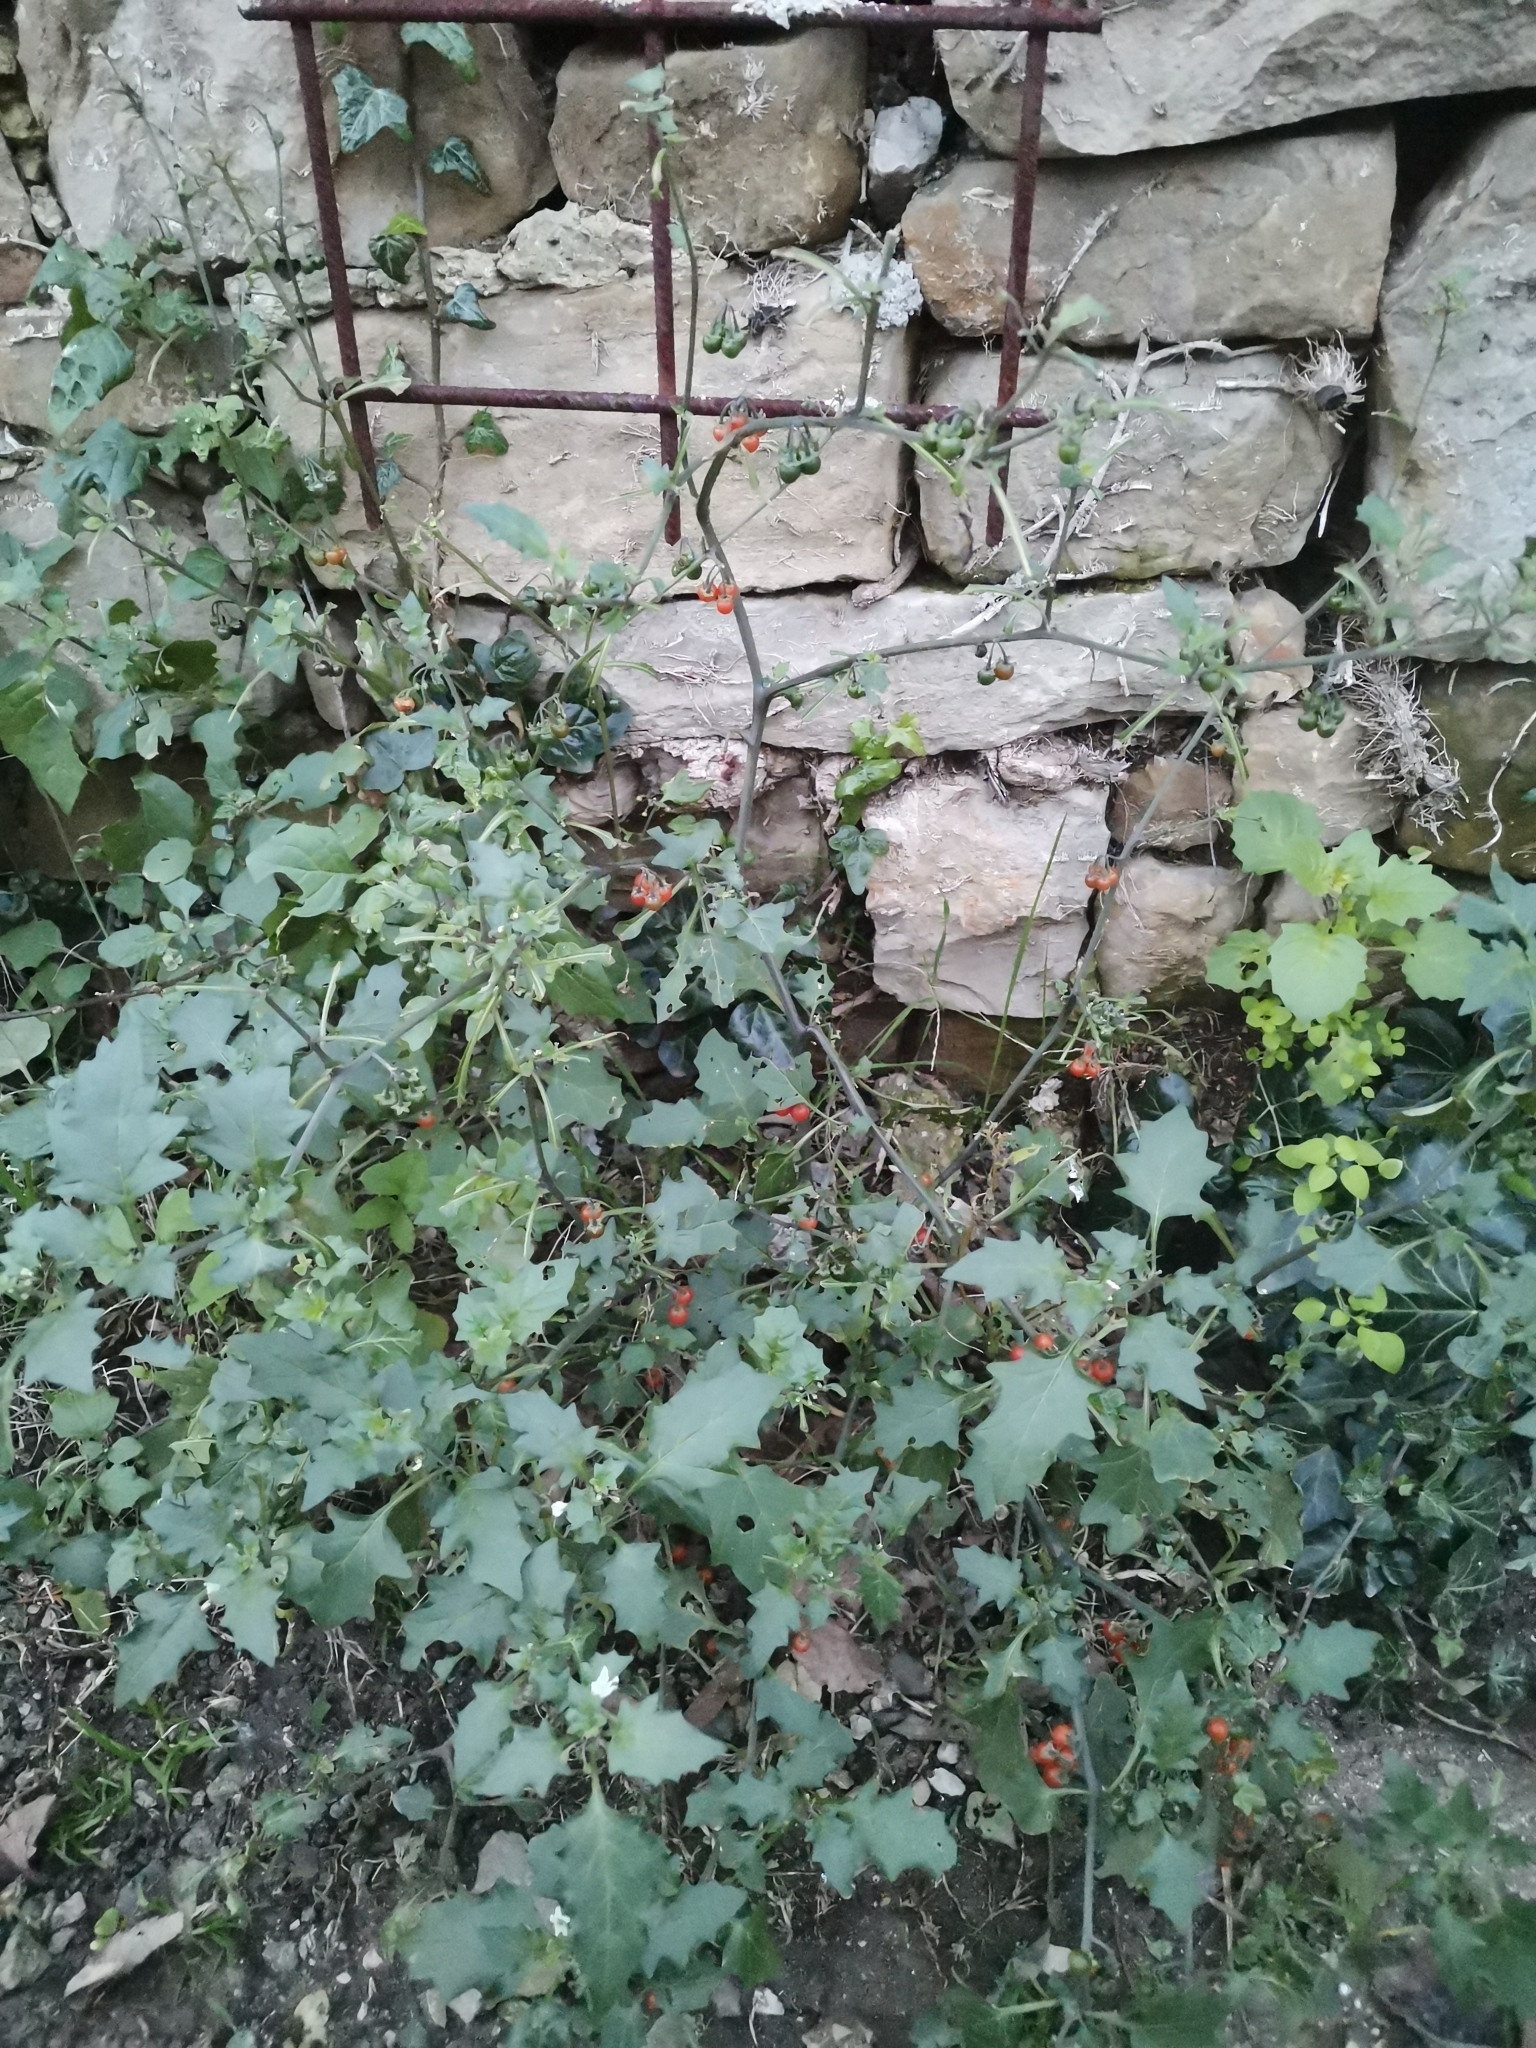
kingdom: Plantae
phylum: Tracheophyta
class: Magnoliopsida
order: Solanales
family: Solanaceae
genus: Solanum
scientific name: Solanum villosum
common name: Red nightshade
